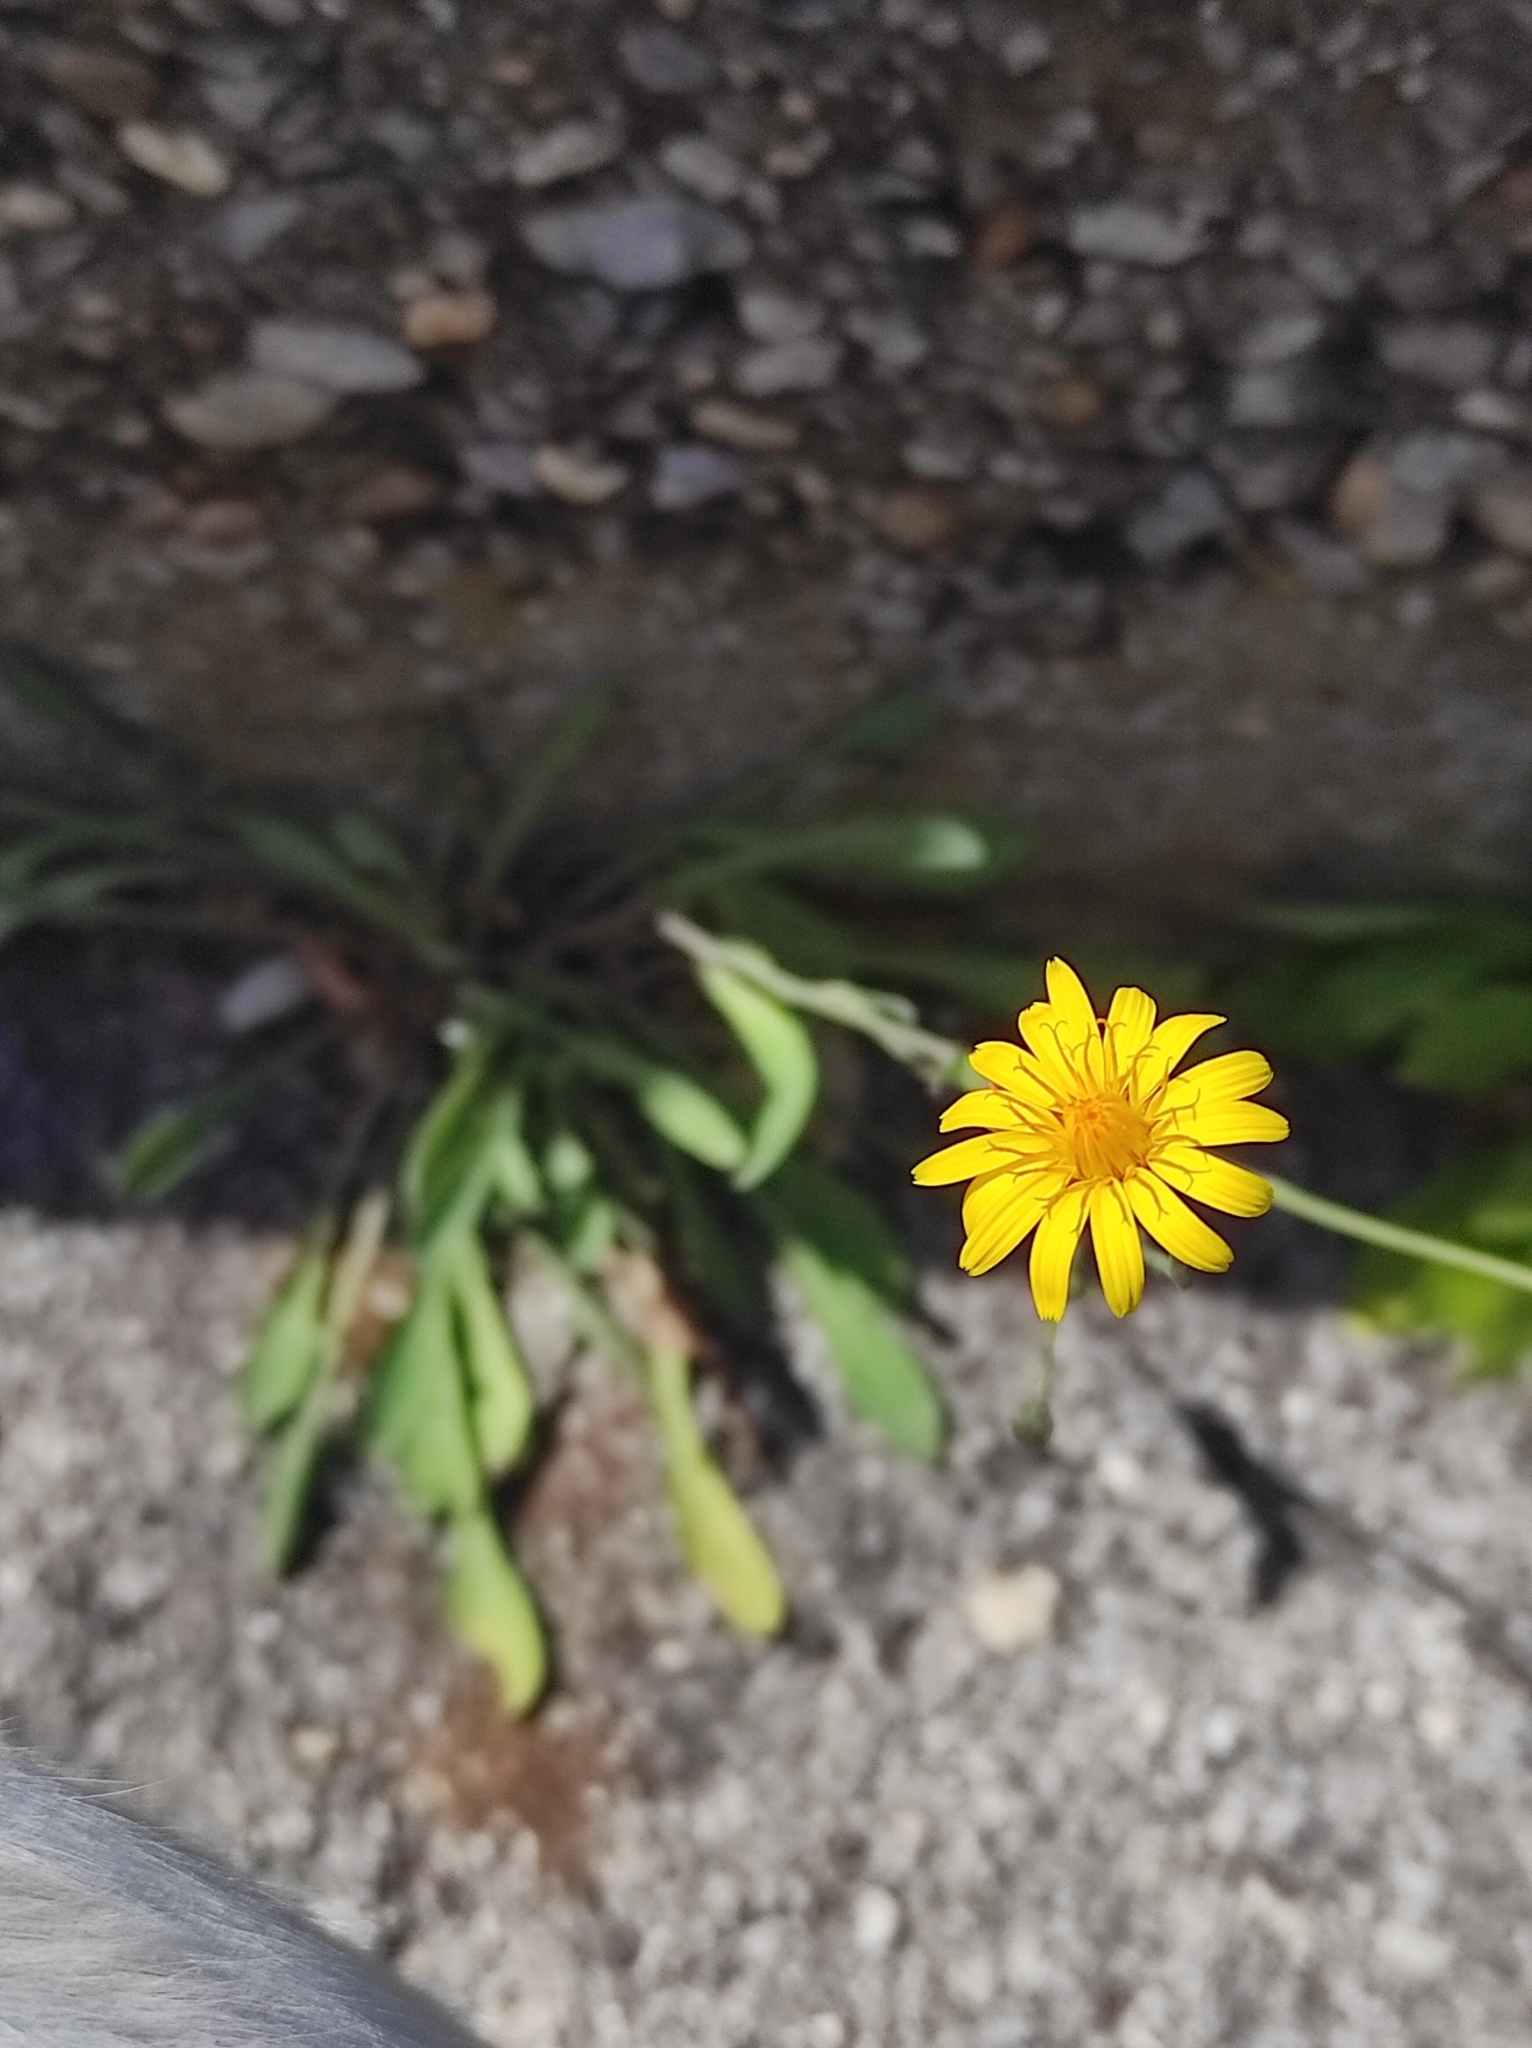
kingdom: Plantae
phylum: Tracheophyta
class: Magnoliopsida
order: Asterales
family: Asteraceae
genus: Reichardia
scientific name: Reichardia picroides
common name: Common brighteyes
